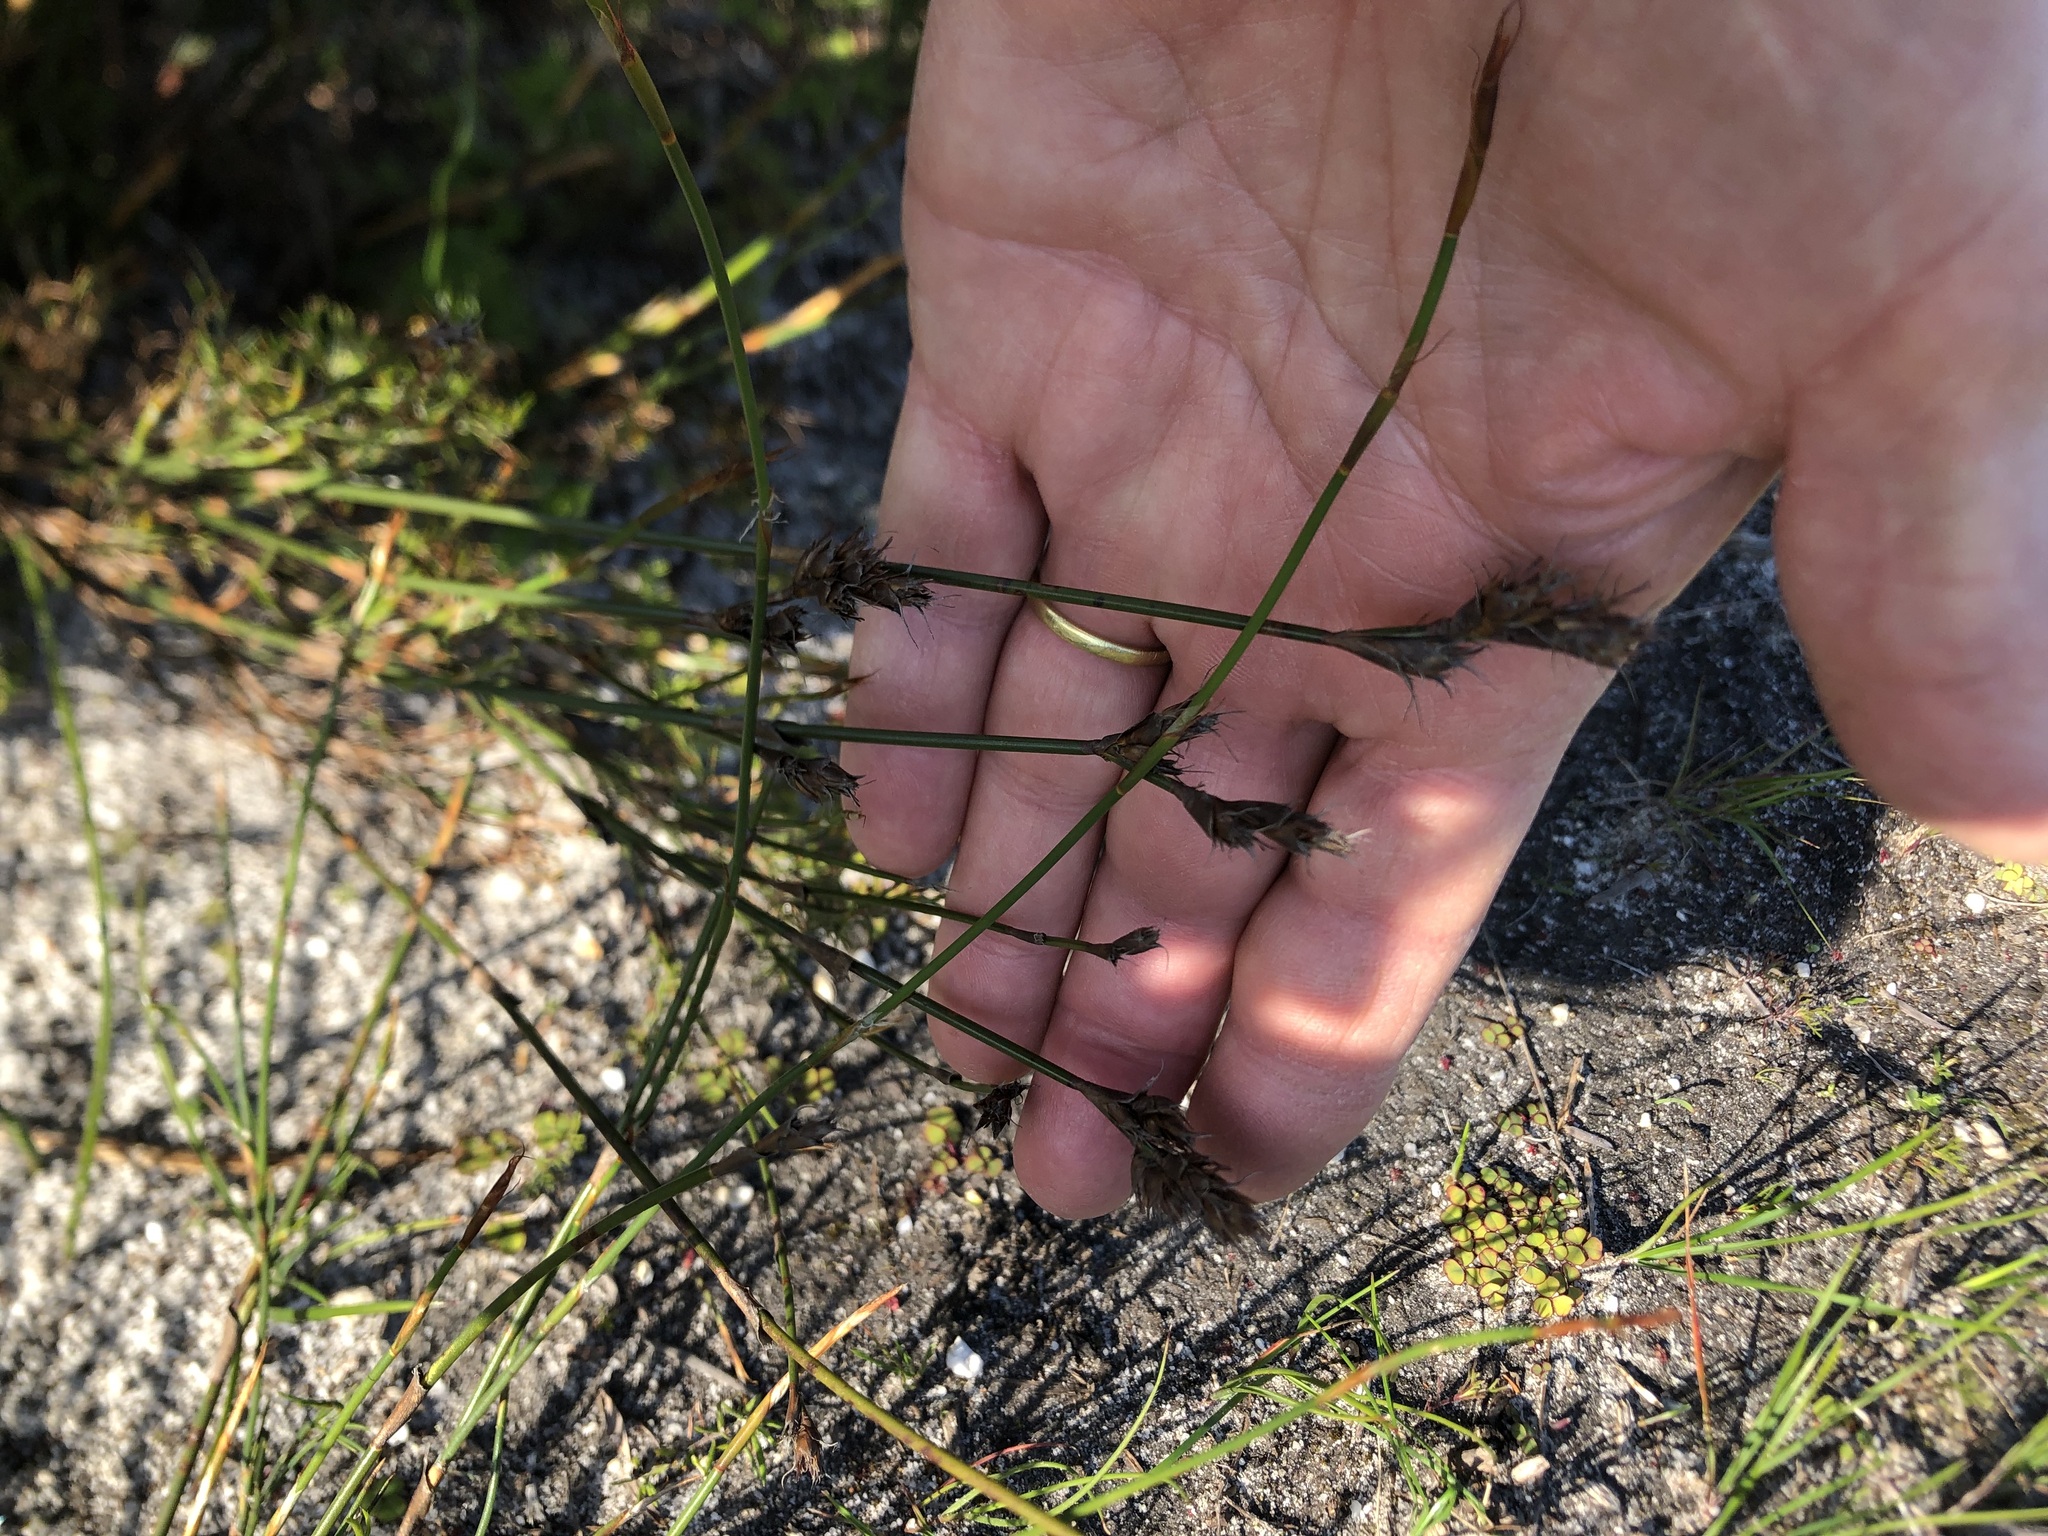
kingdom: Plantae
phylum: Tracheophyta
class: Liliopsida
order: Poales
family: Restionaceae
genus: Restio
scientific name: Restio capensis
